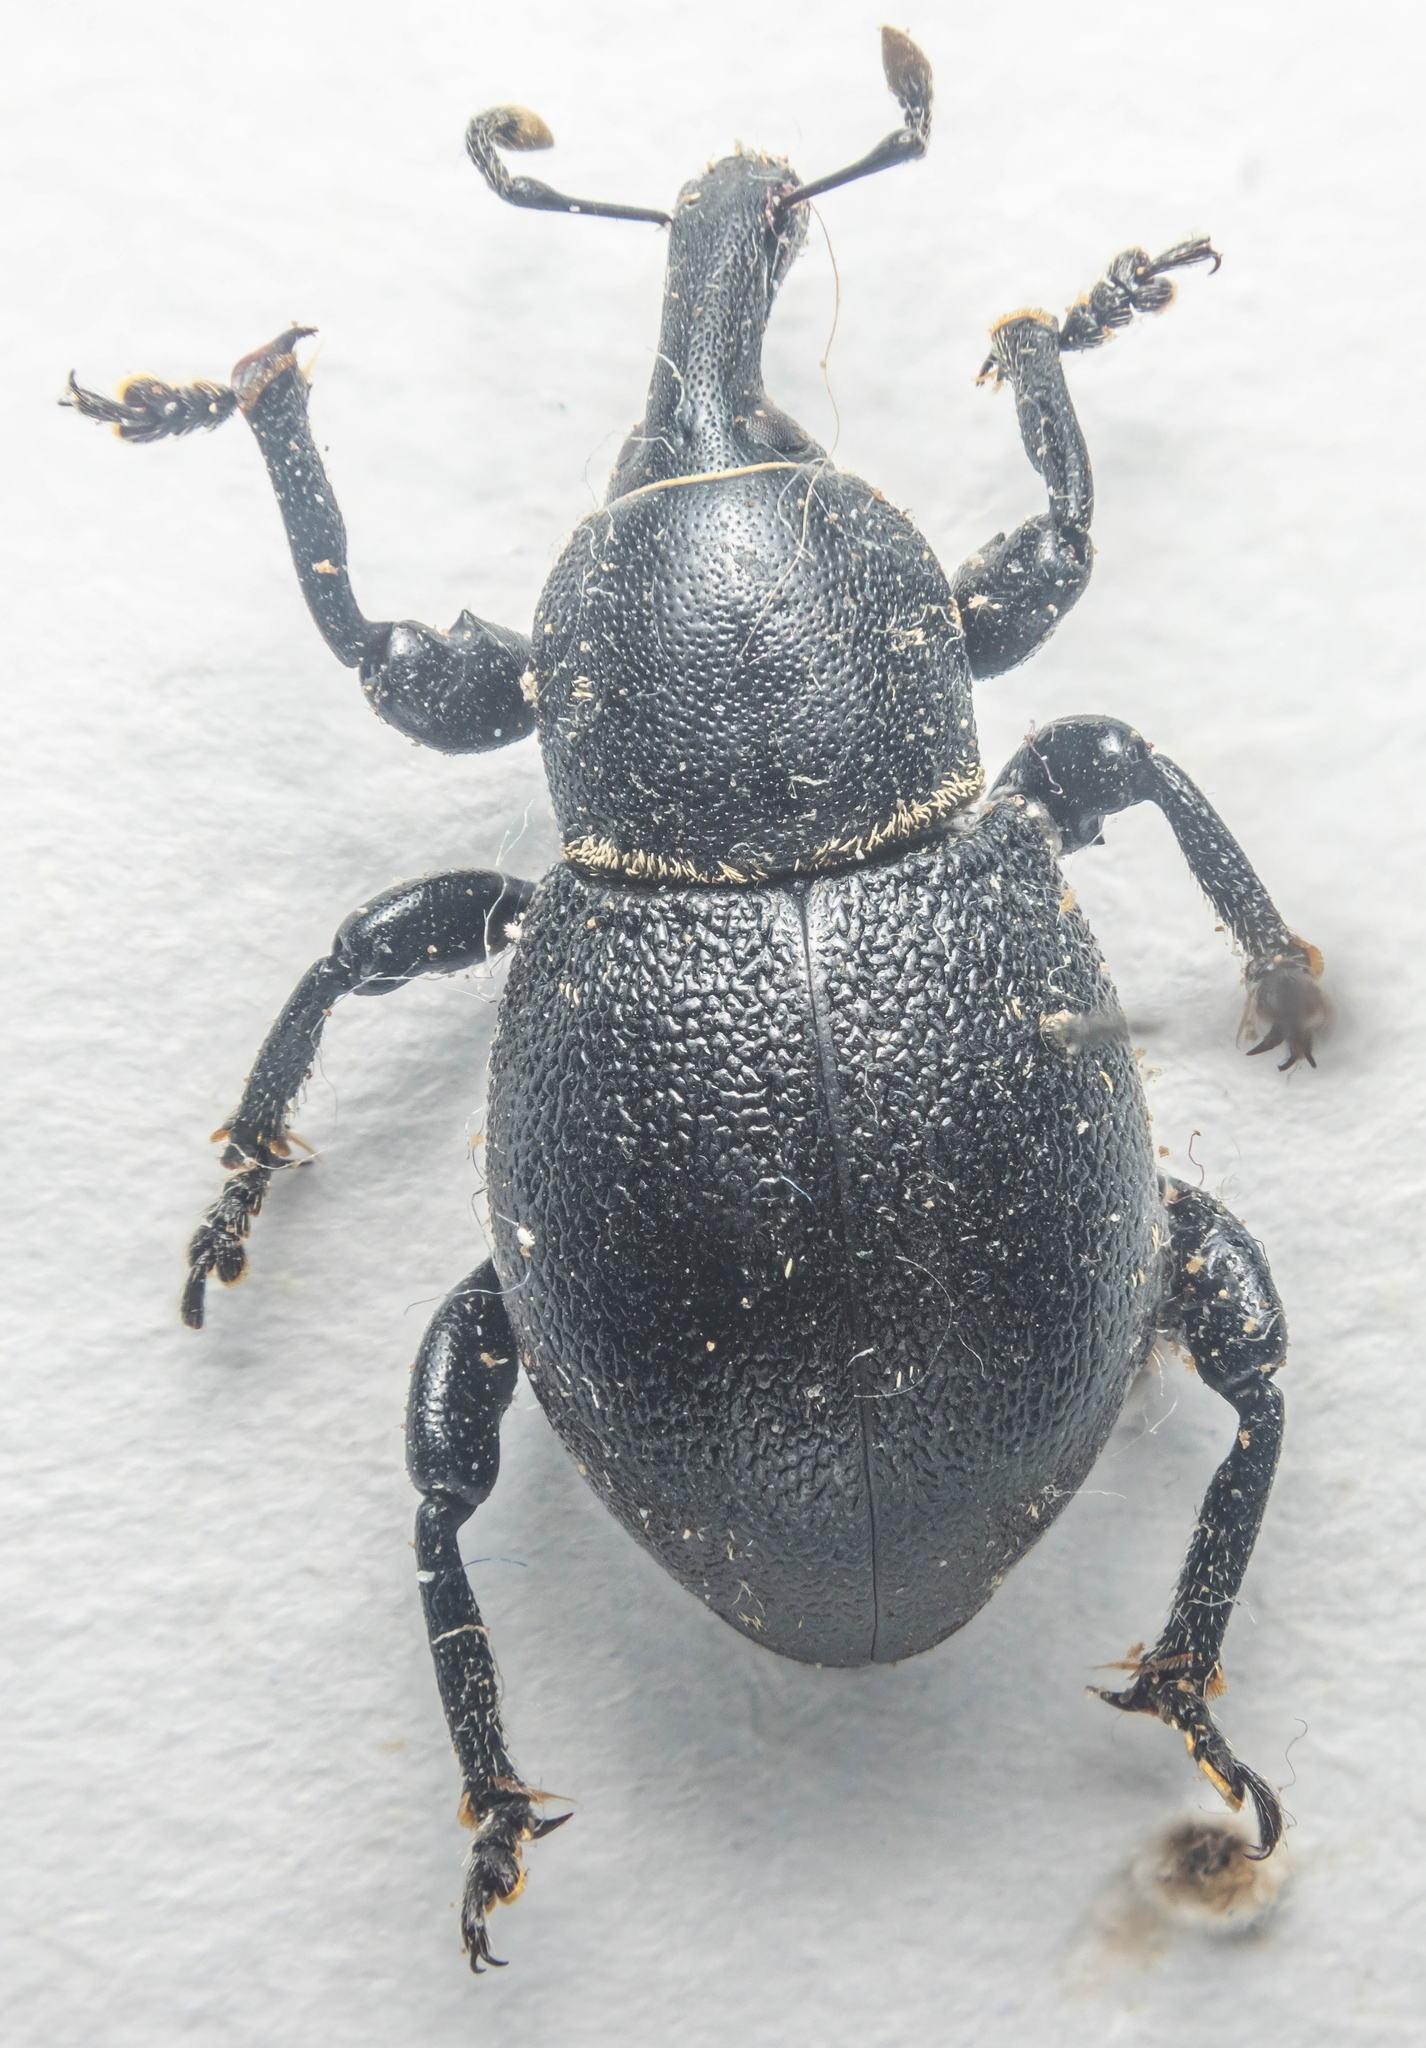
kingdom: Animalia
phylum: Arthropoda
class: Insecta
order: Coleoptera
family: Curculionidae
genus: Liparus
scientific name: Liparus coronatus
